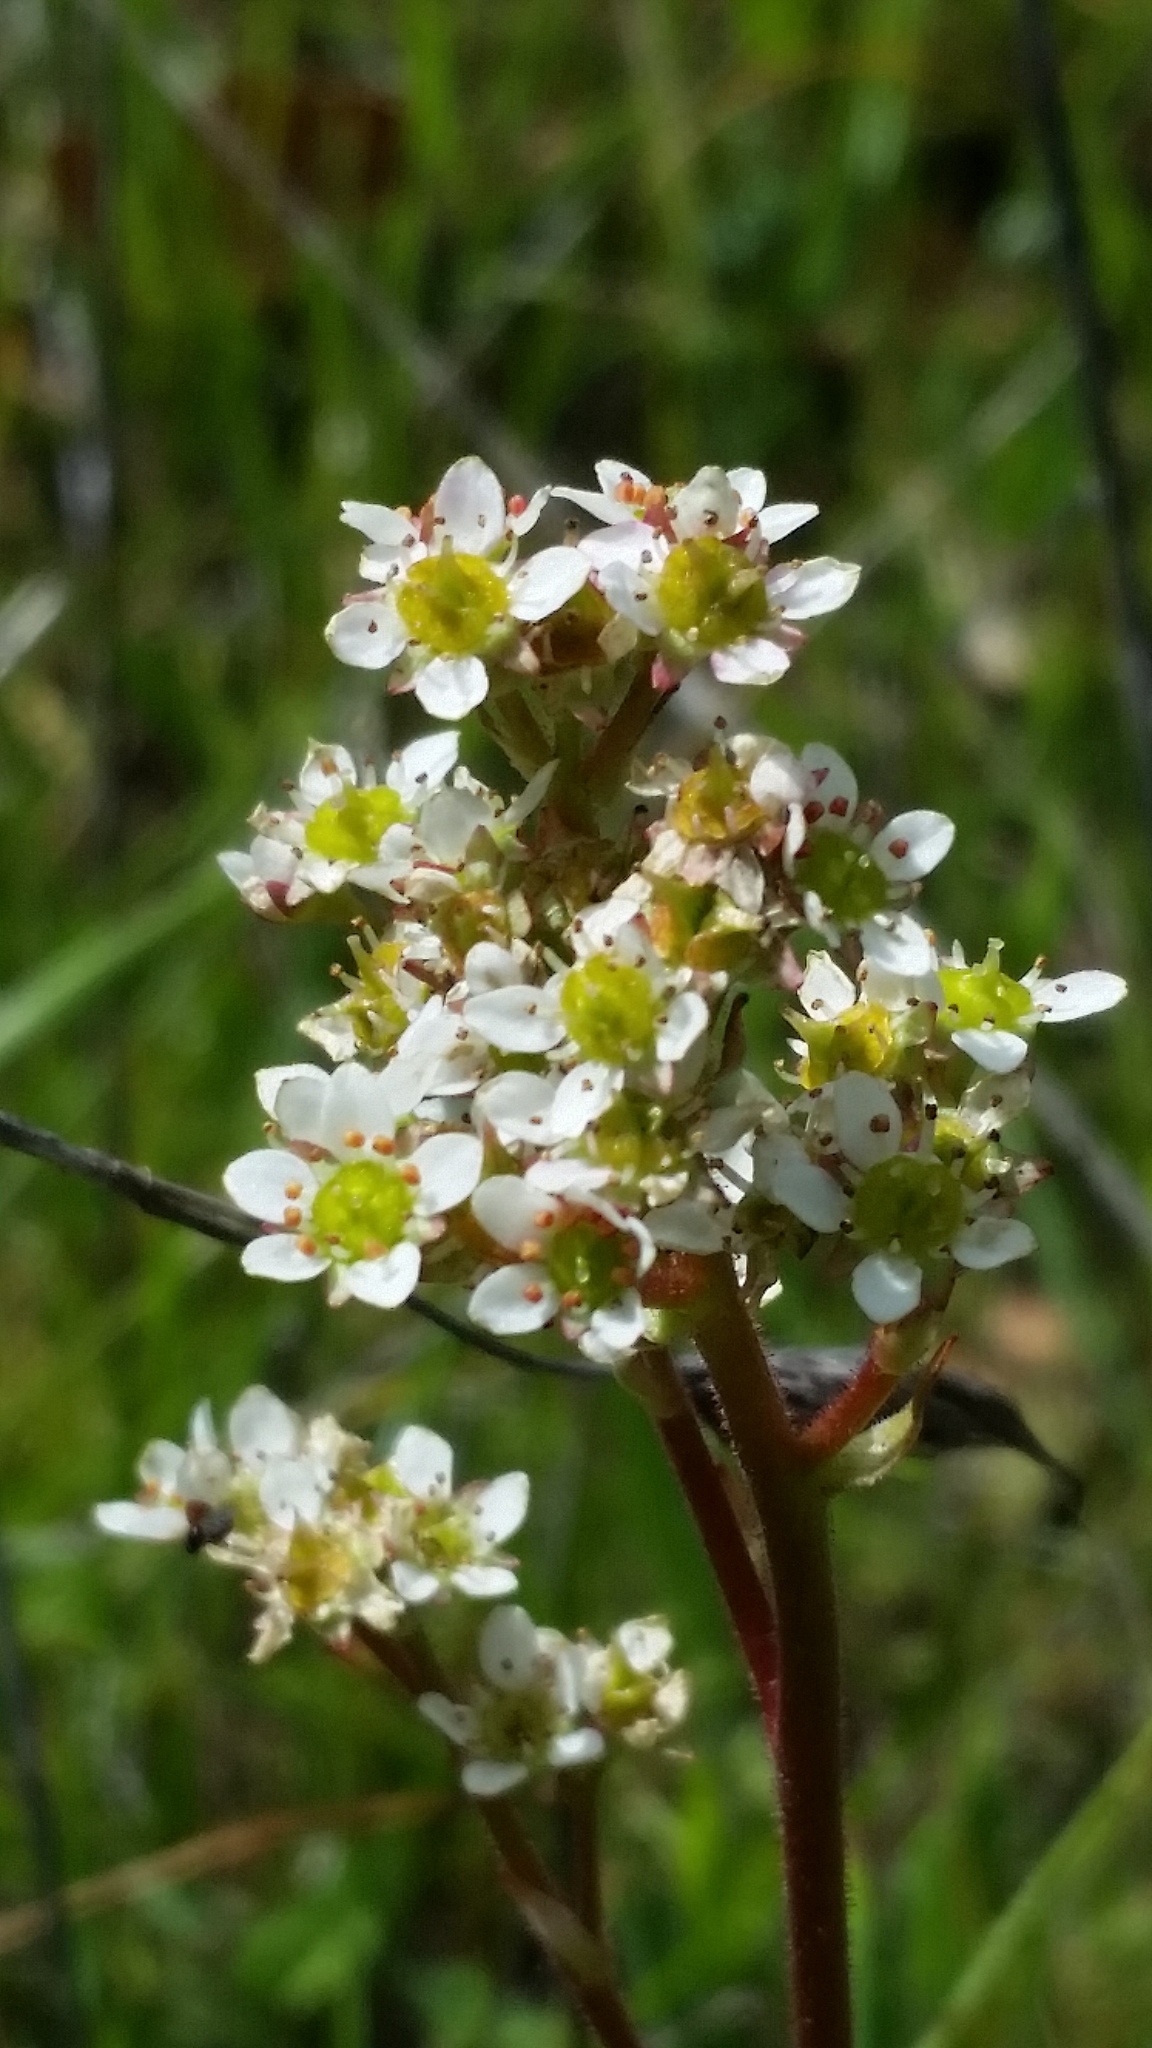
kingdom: Plantae
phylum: Tracheophyta
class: Magnoliopsida
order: Saxifragales
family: Saxifragaceae
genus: Micranthes
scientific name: Micranthes californica
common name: California saxifrage
